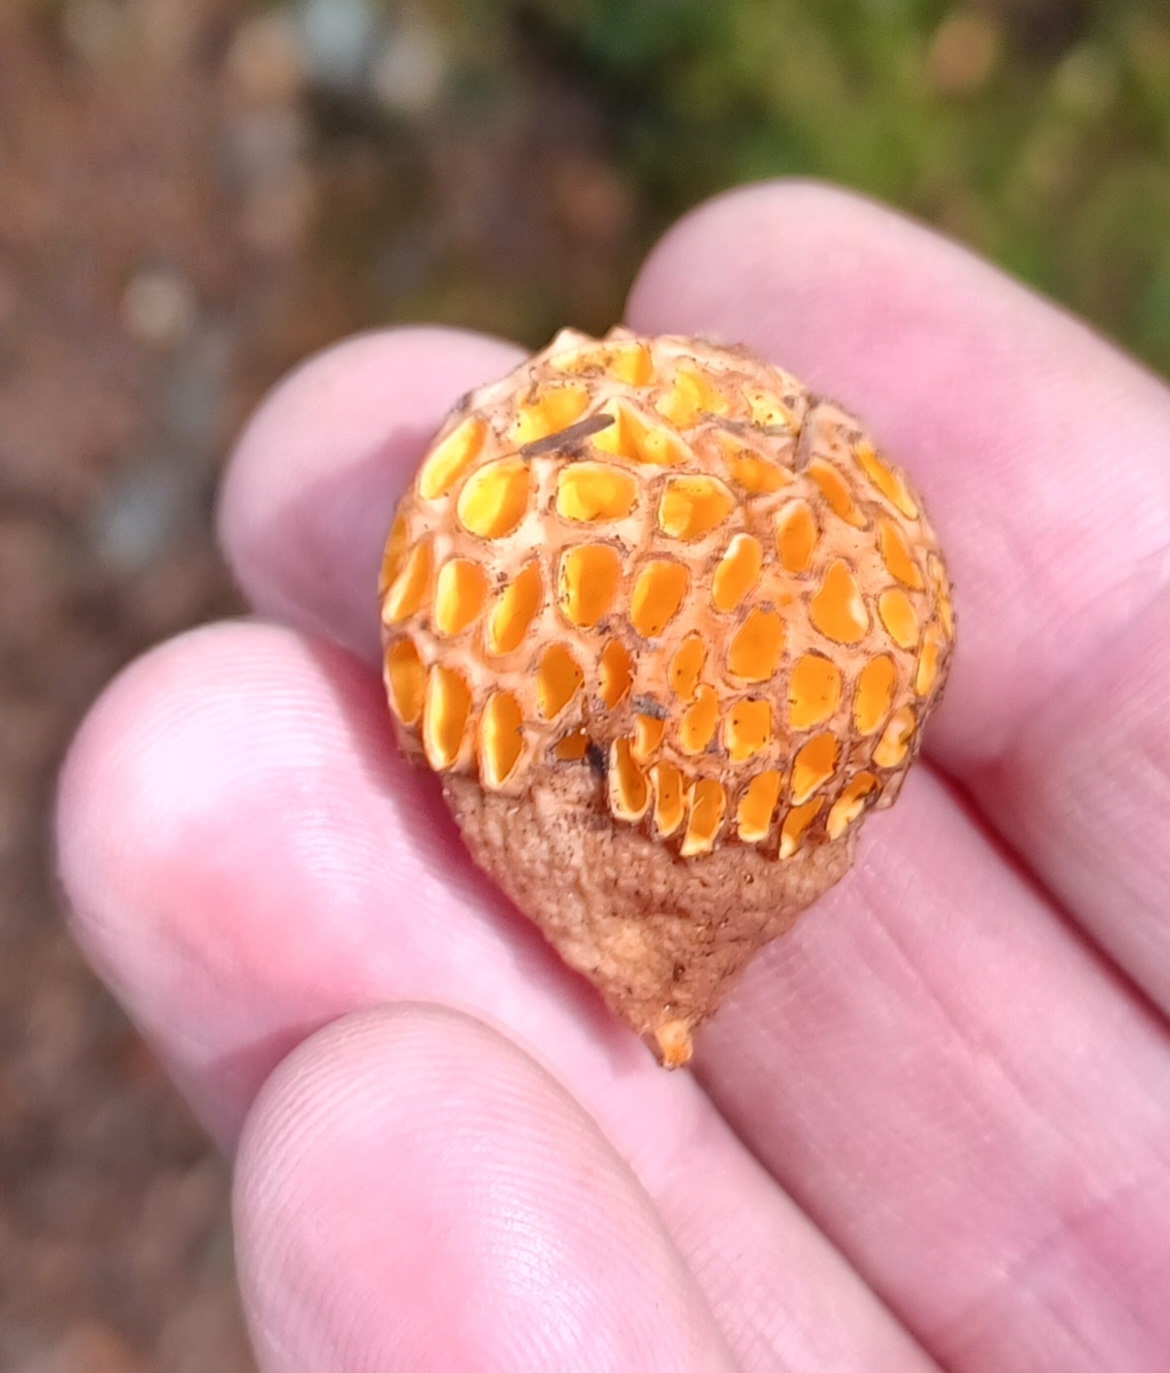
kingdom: Fungi
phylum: Ascomycota
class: Leotiomycetes
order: Cyttariales
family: Cyttariaceae
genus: Cyttaria
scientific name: Cyttaria gunnii
